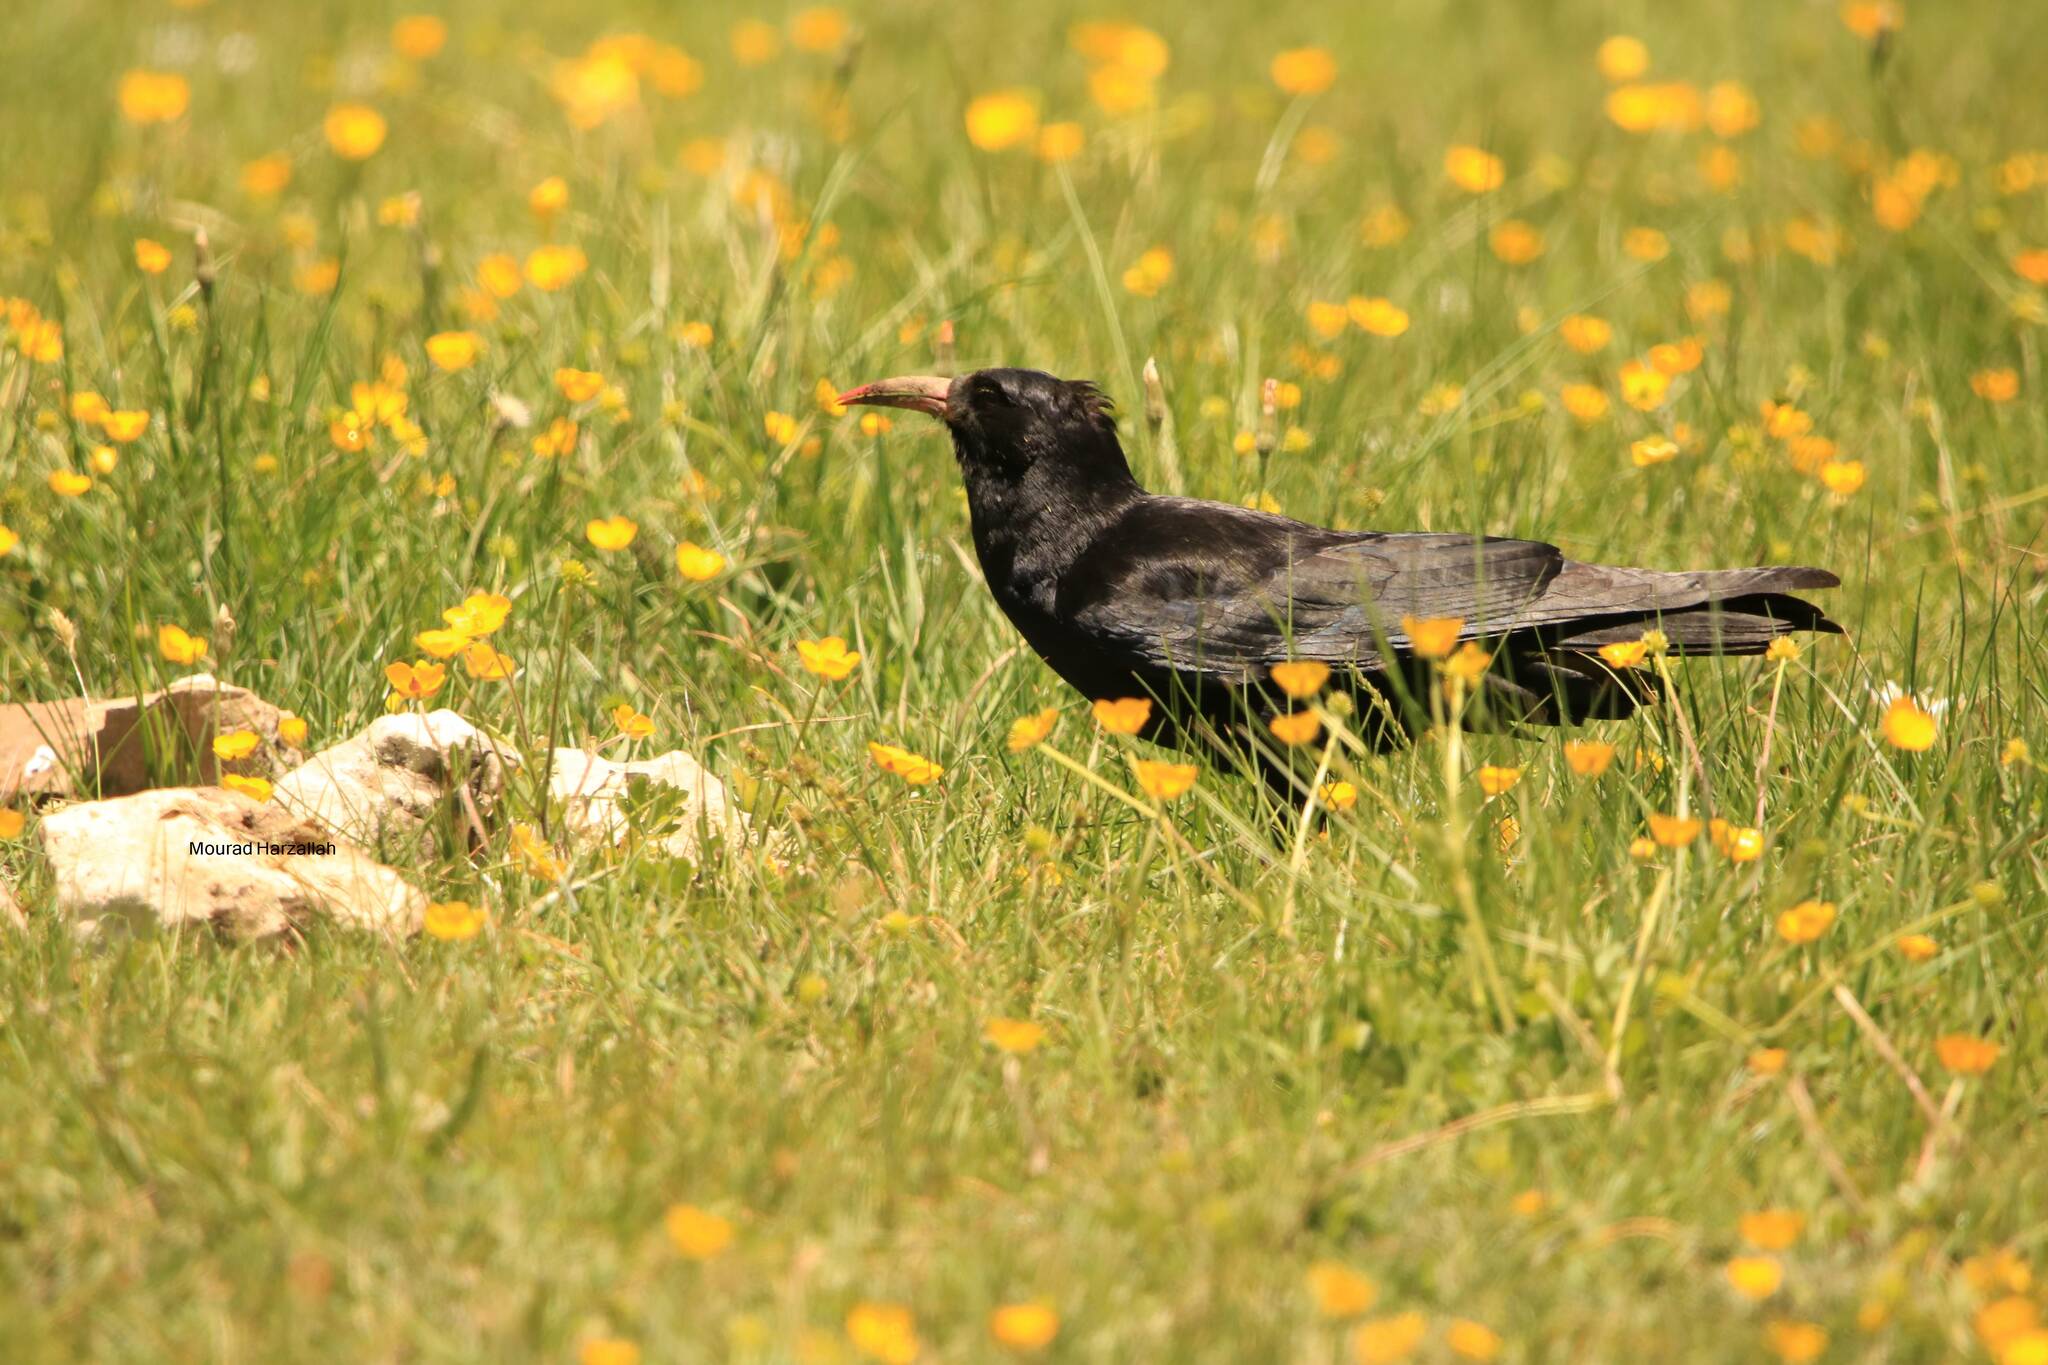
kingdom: Animalia
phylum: Chordata
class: Aves
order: Passeriformes
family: Corvidae
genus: Pyrrhocorax
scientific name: Pyrrhocorax pyrrhocorax
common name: Red-billed chough
